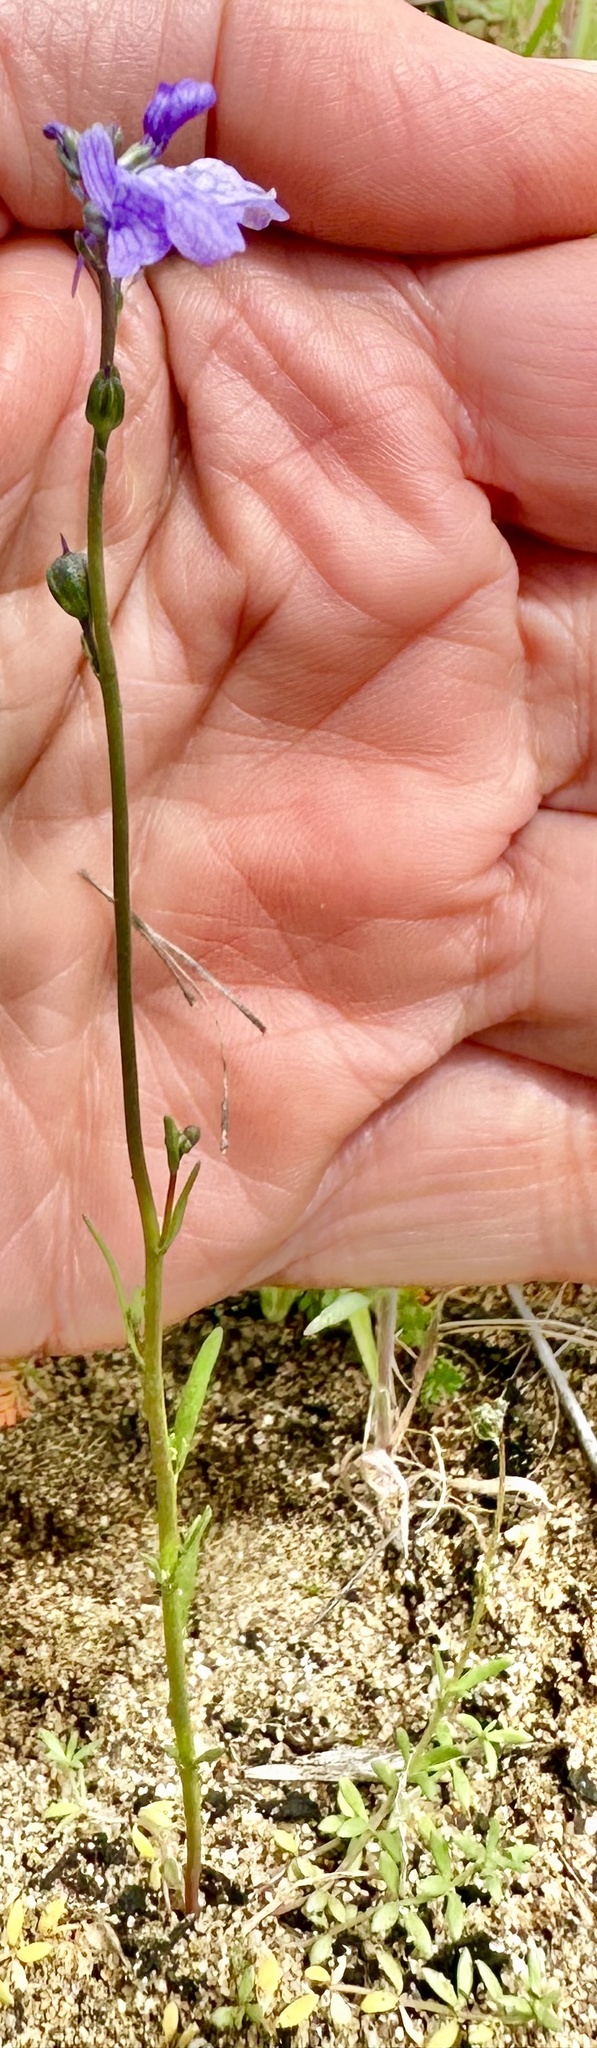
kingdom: Plantae
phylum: Tracheophyta
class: Magnoliopsida
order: Lamiales
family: Plantaginaceae
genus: Nuttallanthus
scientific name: Nuttallanthus texanus
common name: Texas toadflax
